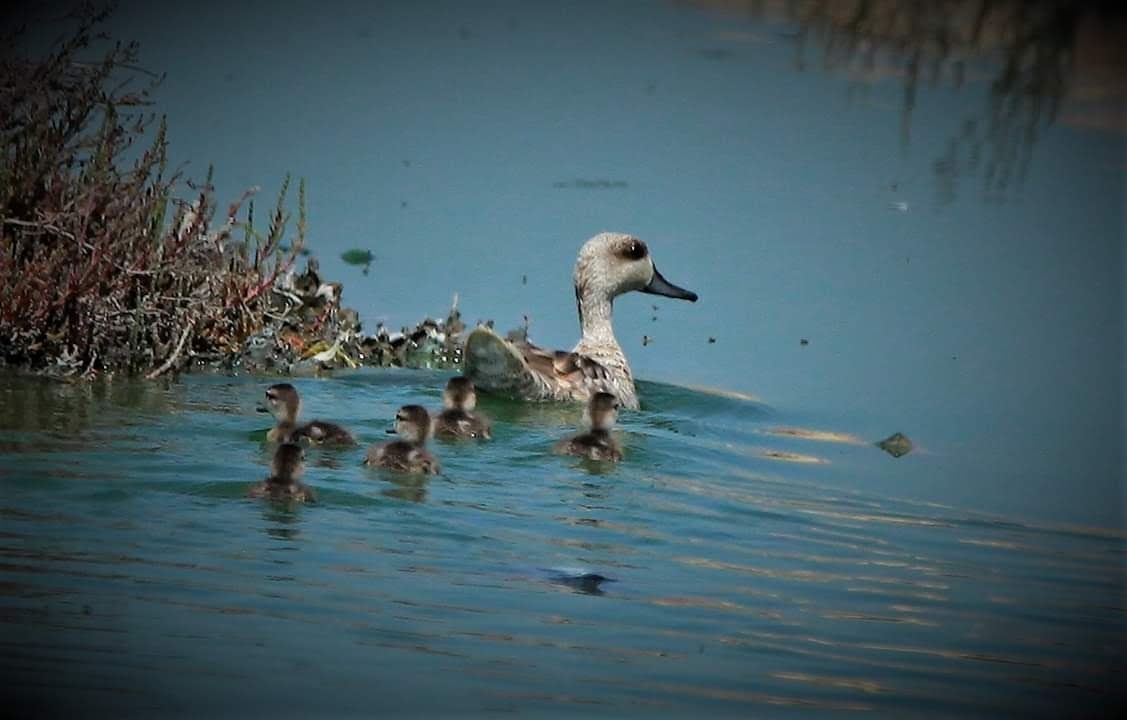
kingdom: Animalia
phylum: Chordata
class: Aves
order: Anseriformes
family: Anatidae
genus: Marmaronetta
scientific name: Marmaronetta angustirostris
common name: Marbled duck
